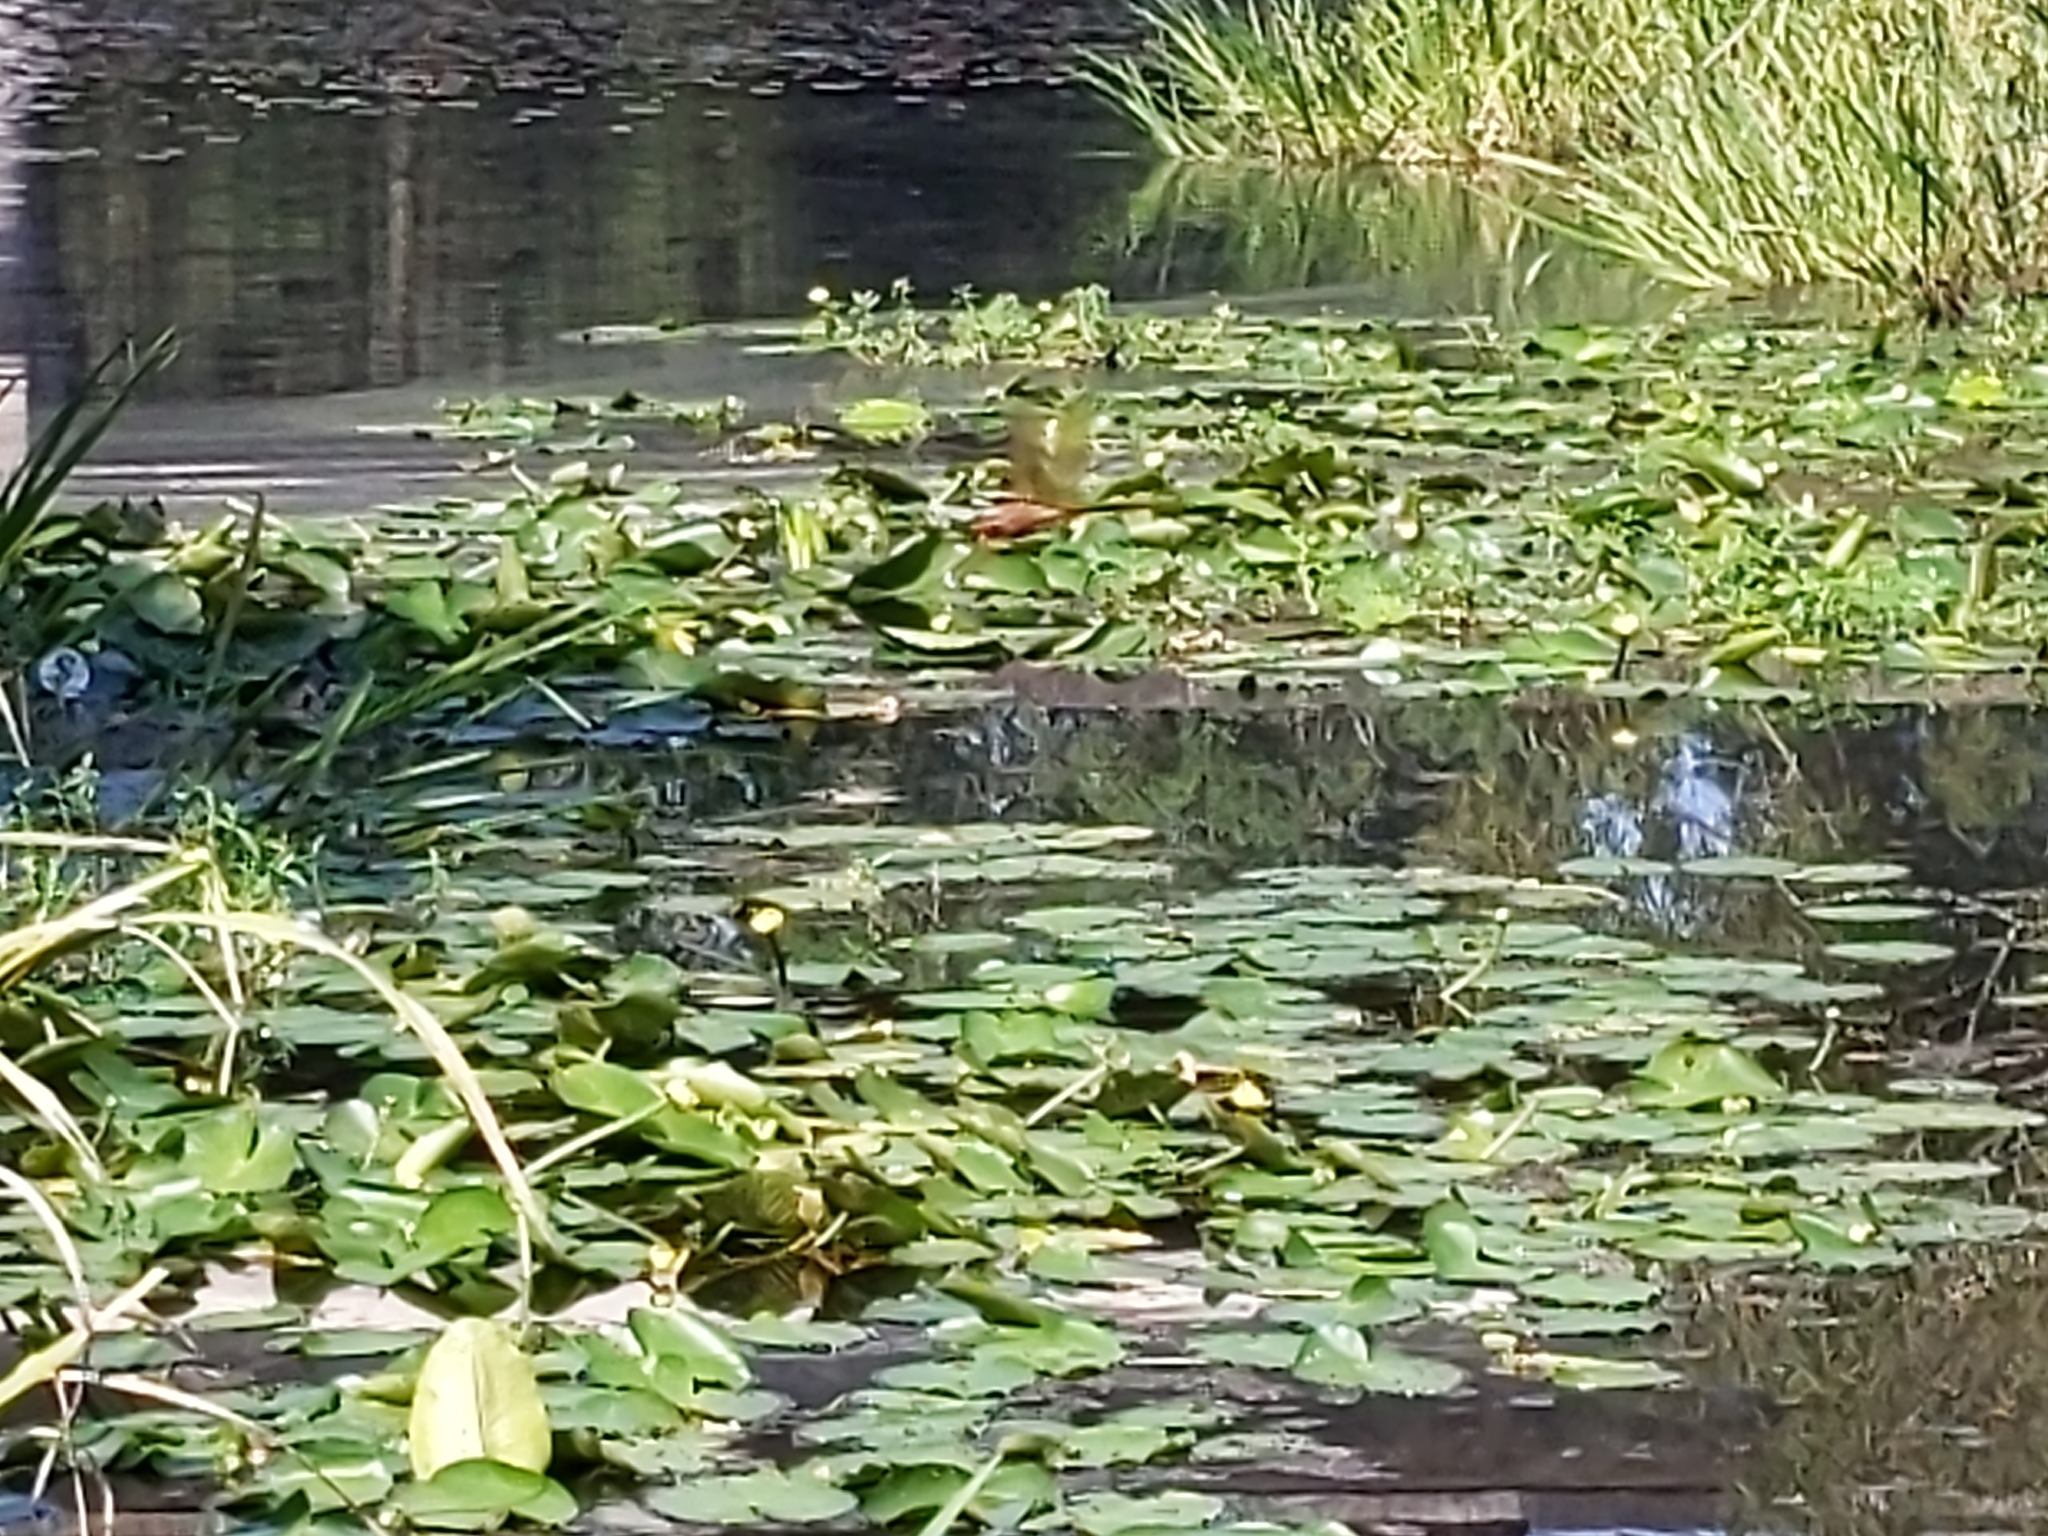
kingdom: Plantae
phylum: Tracheophyta
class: Magnoliopsida
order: Nymphaeales
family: Nymphaeaceae
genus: Nuphar
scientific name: Nuphar advena
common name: Spatter-dock
